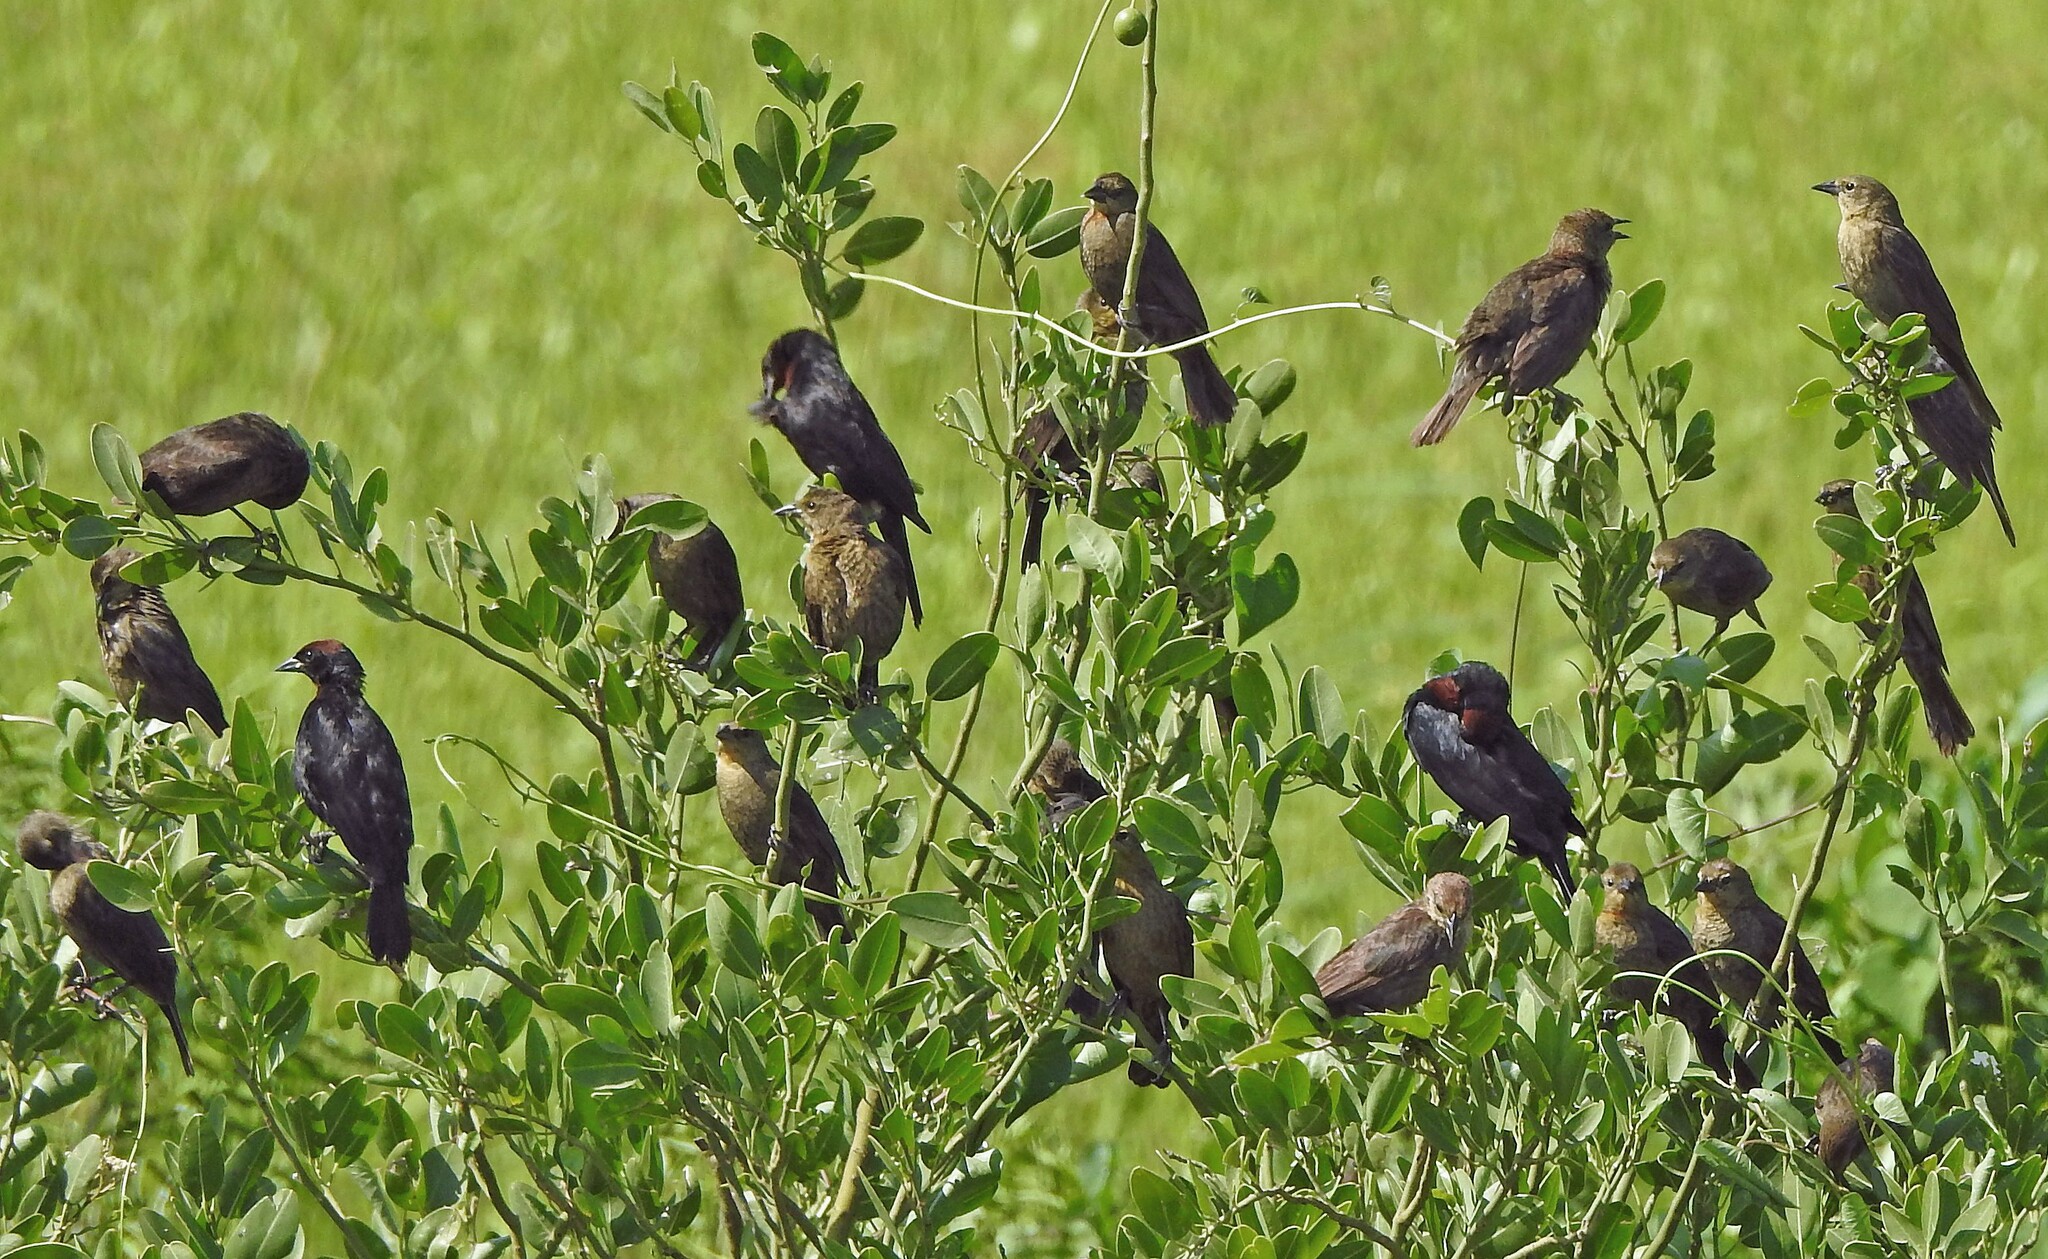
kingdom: Animalia
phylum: Chordata
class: Aves
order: Passeriformes
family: Icteridae
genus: Chrysomus
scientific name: Chrysomus ruficapillus
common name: Chestnut-capped blackbird
